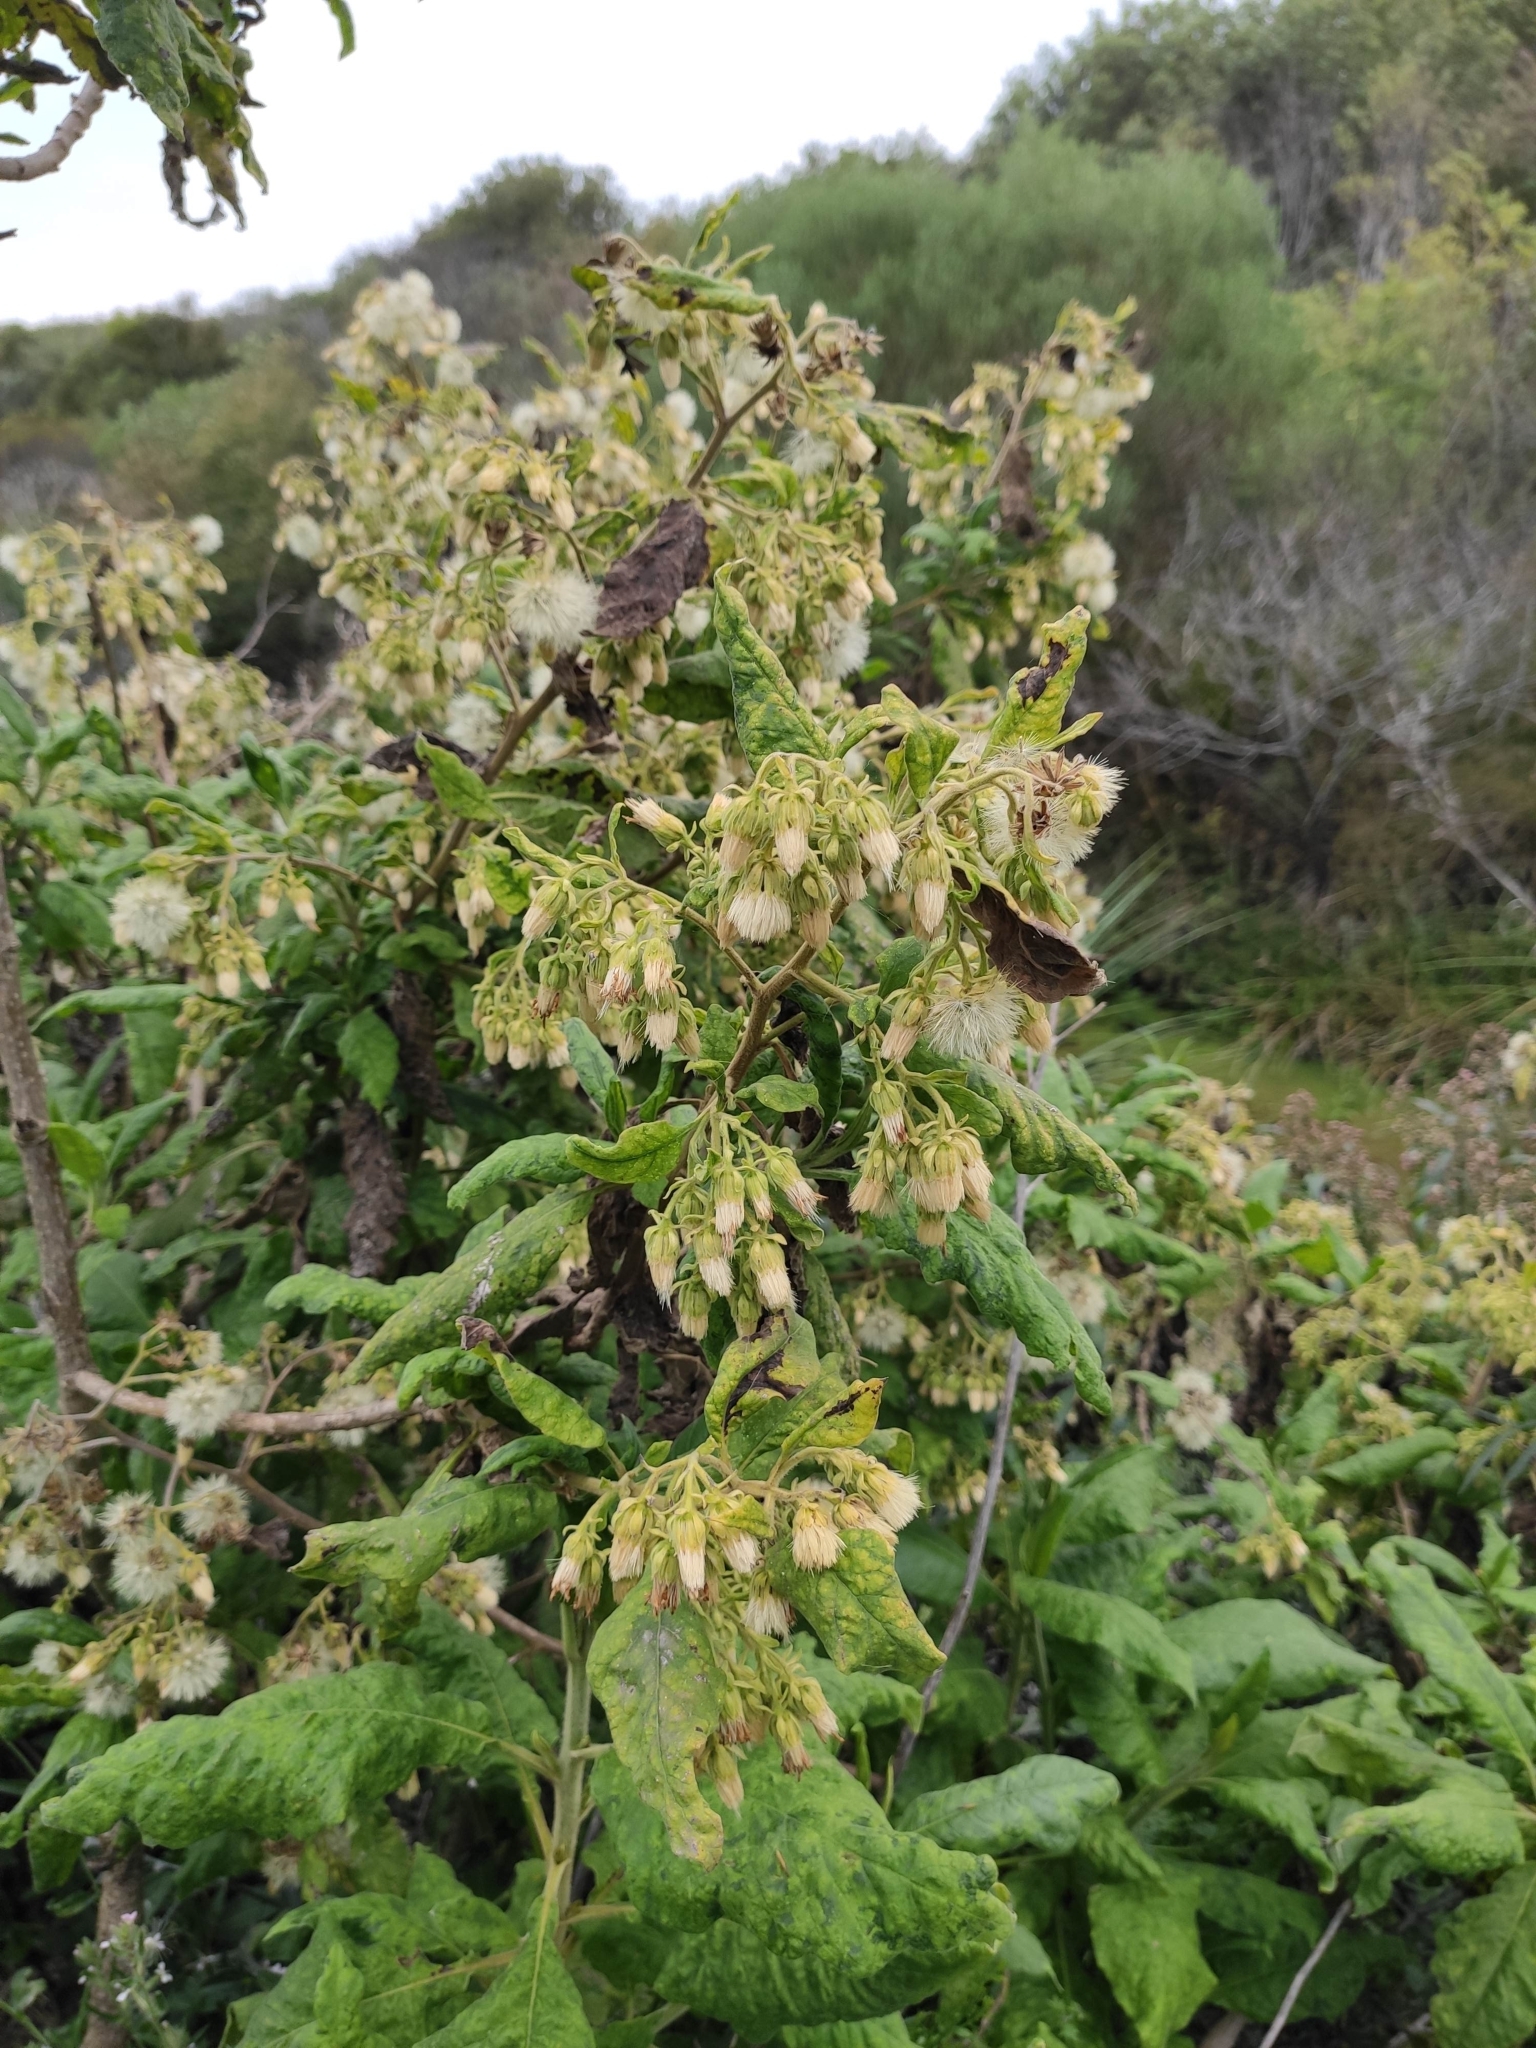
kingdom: Plantae
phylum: Tracheophyta
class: Magnoliopsida
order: Asterales
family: Asteraceae
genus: Trixis
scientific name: Trixis praestans
